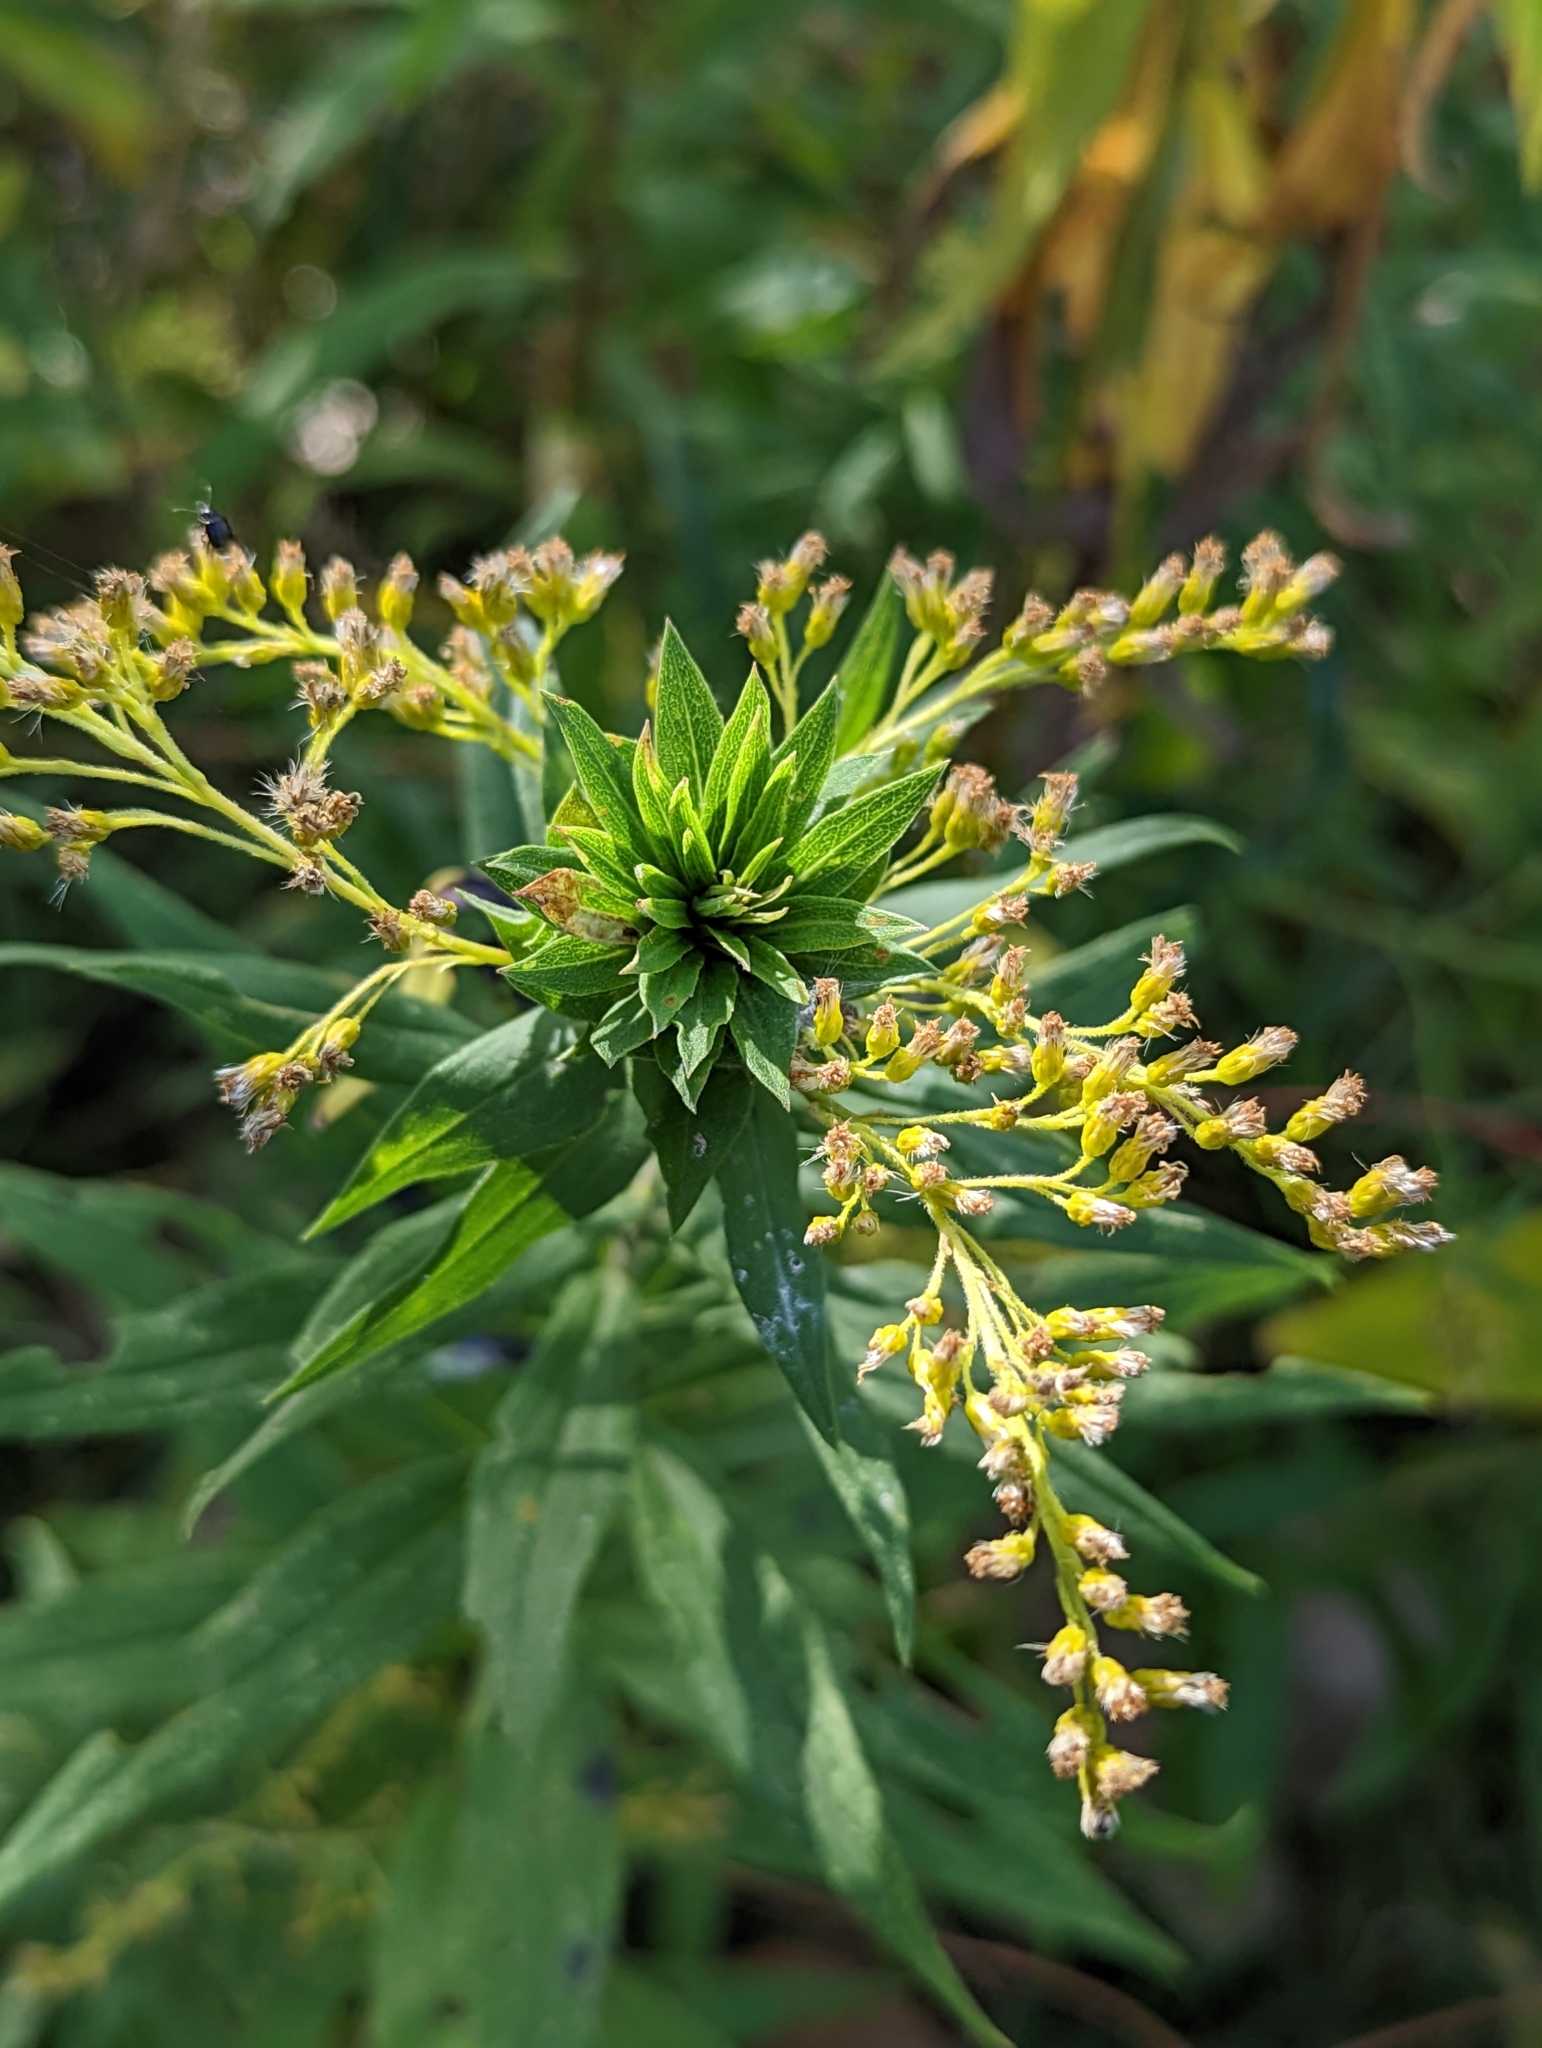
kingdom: Animalia
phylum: Arthropoda
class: Insecta
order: Diptera
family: Cecidomyiidae
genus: Rhopalomyia
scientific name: Rhopalomyia solidaginis
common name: Goldenrod bunch gall midge
